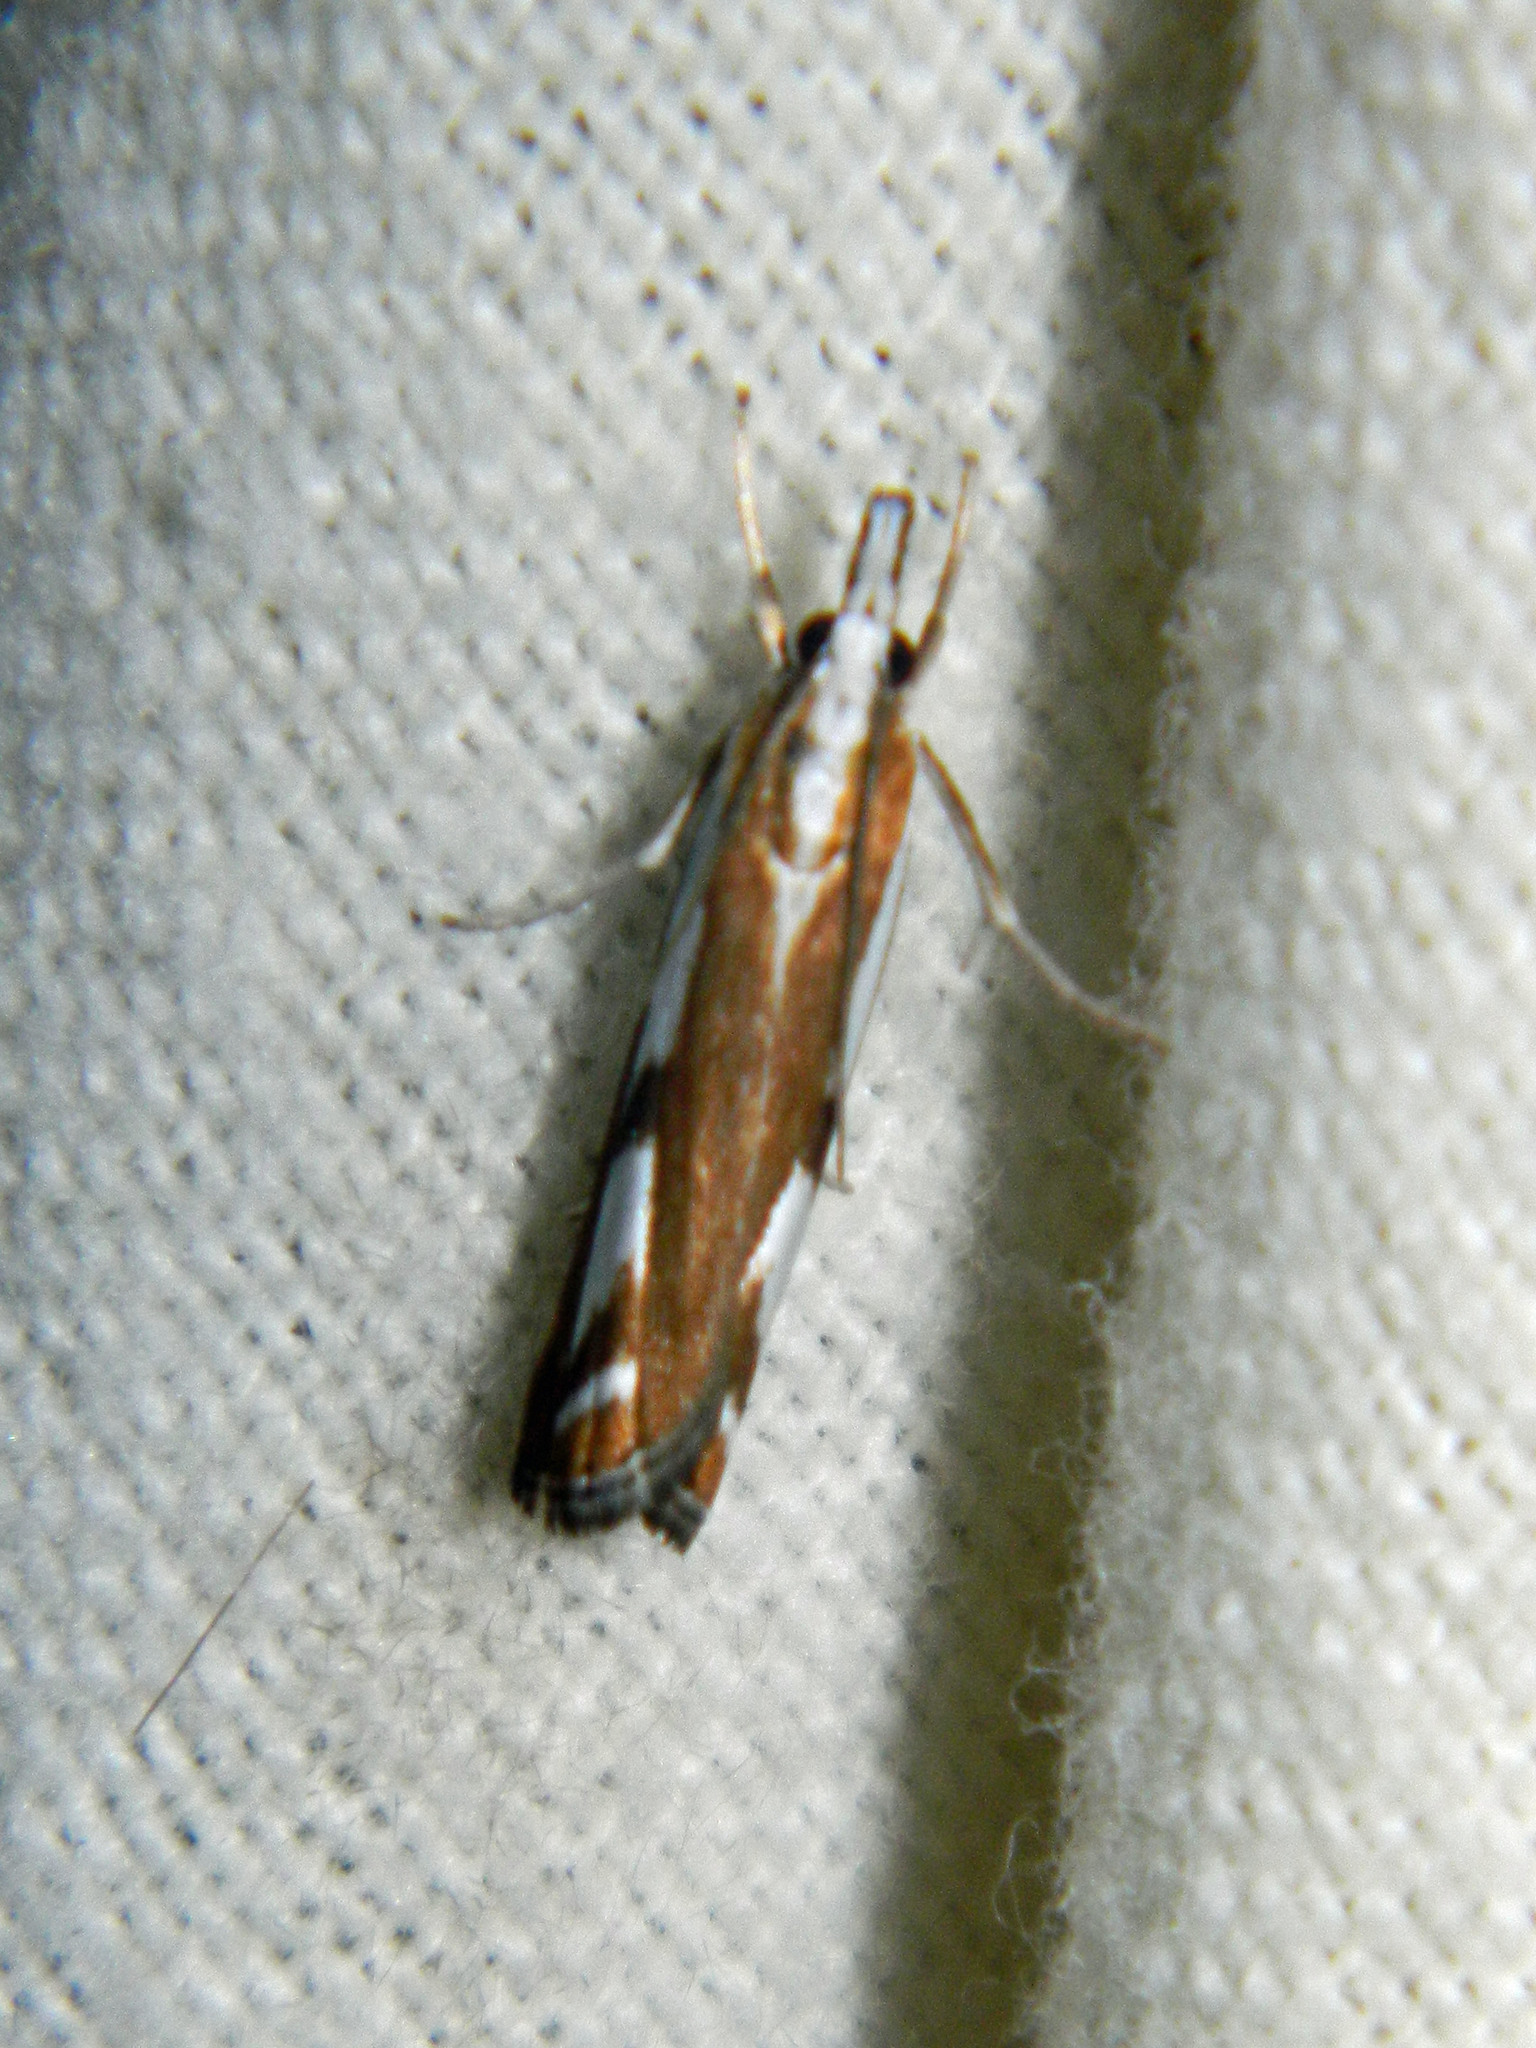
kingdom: Animalia
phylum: Arthropoda
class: Insecta
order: Lepidoptera
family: Crambidae
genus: Catoptria
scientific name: Catoptria latiradiellus
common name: Two-banded catoptria moth
